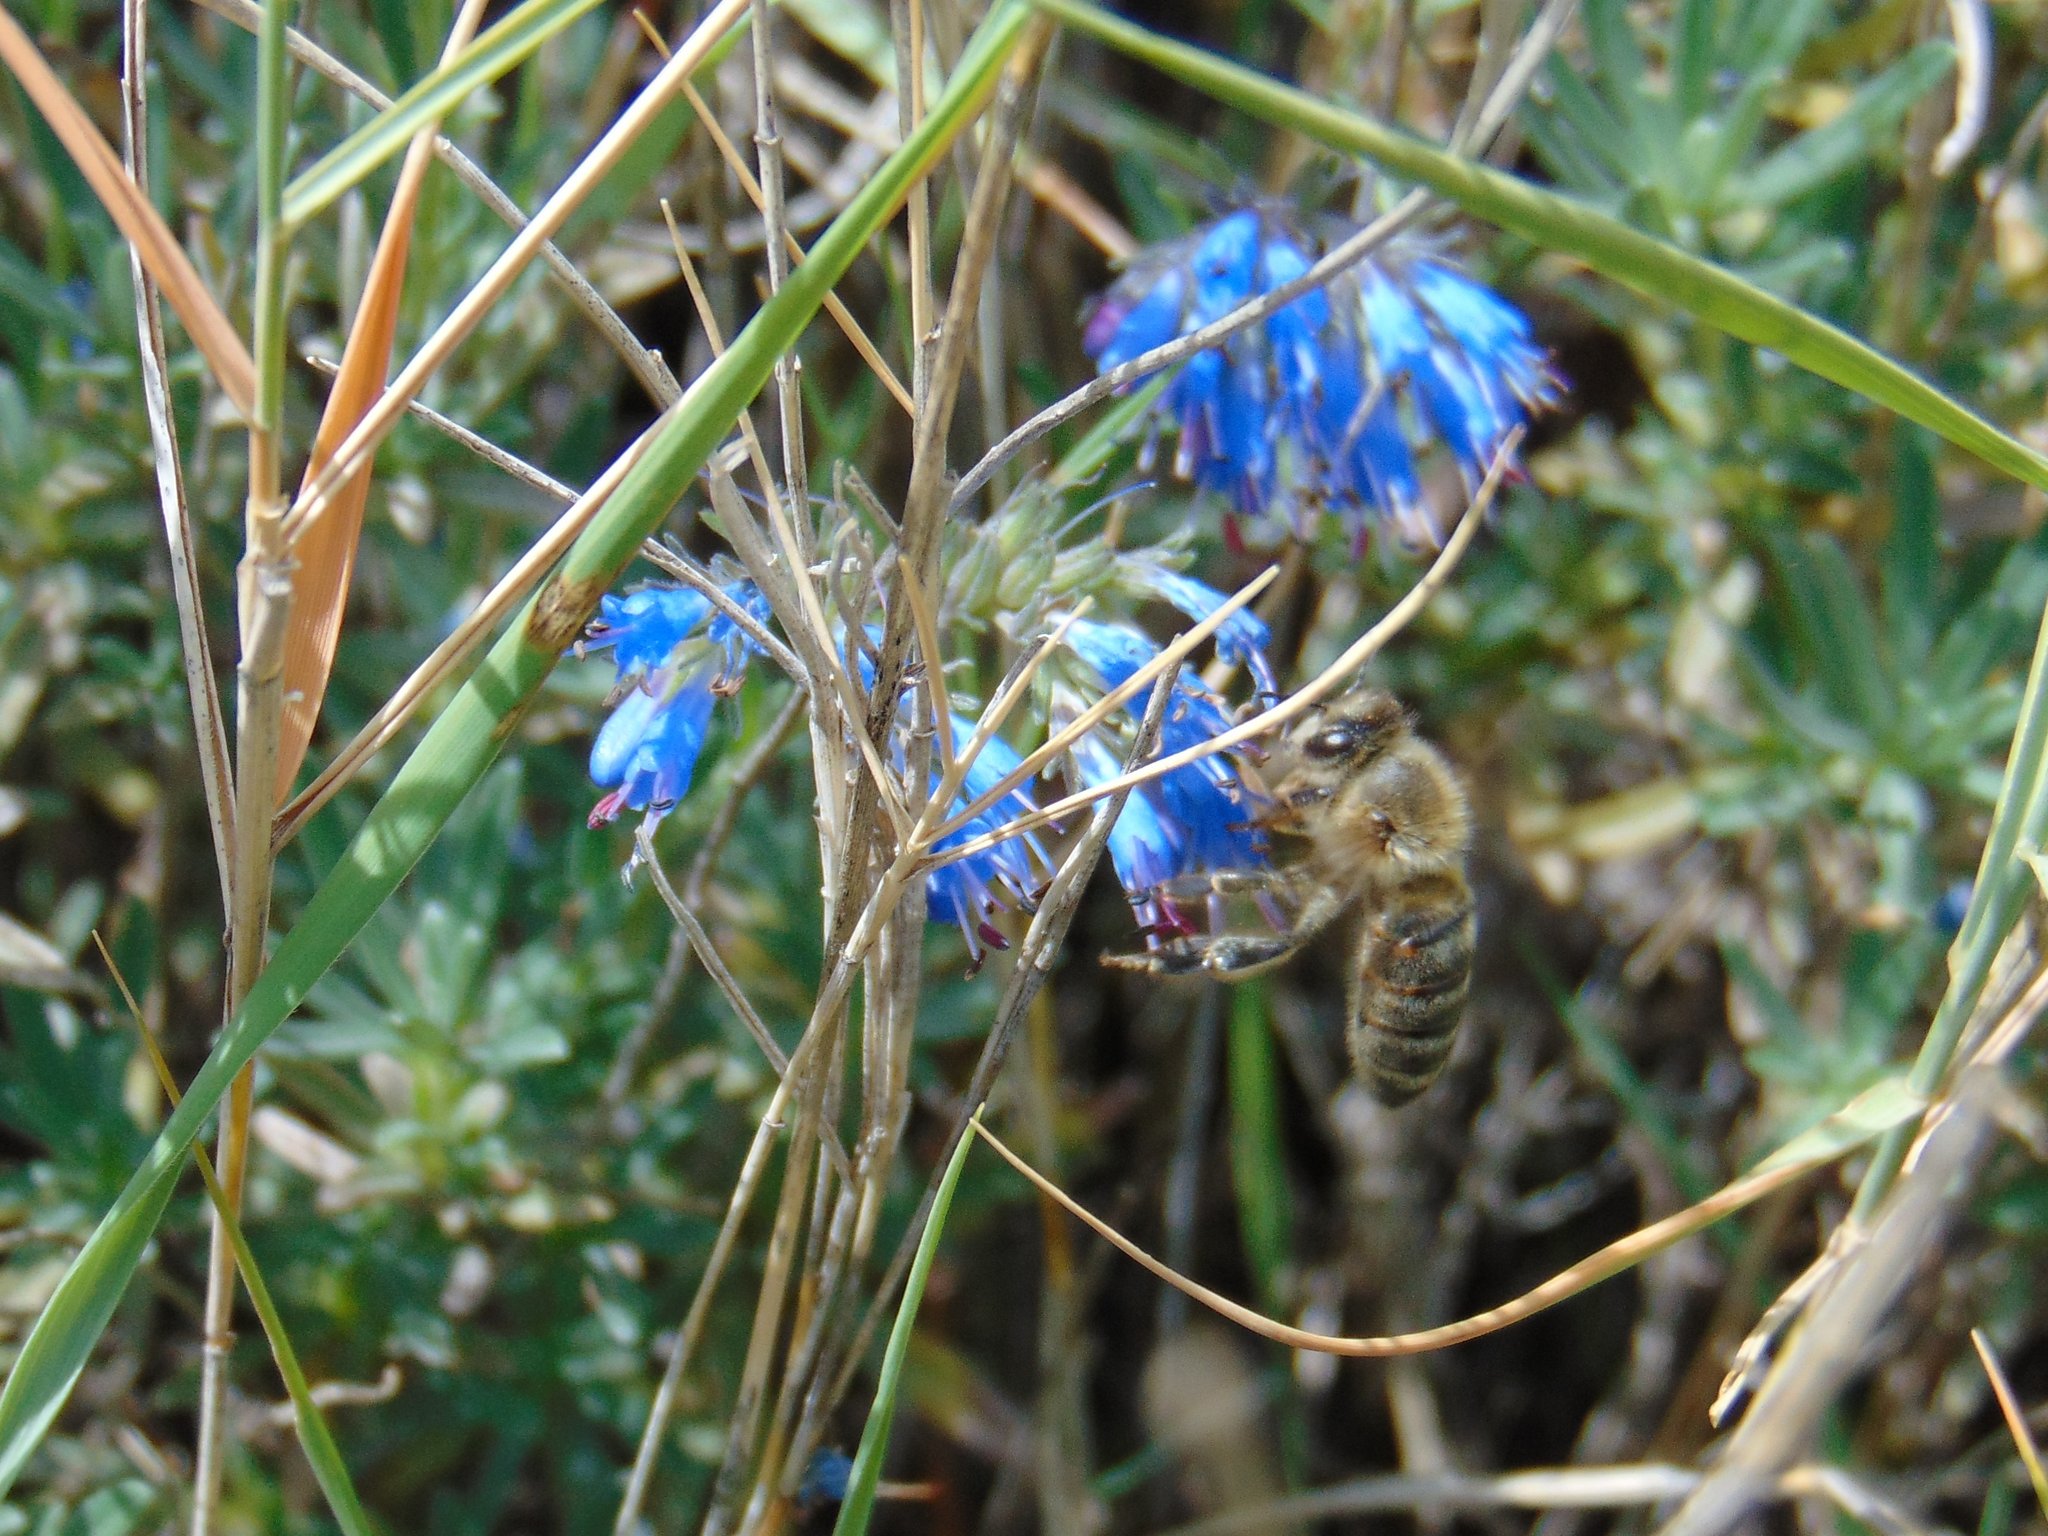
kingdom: Plantae
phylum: Tracheophyta
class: Magnoliopsida
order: Boraginales
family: Boraginaceae
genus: Moltkia
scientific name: Moltkia petraea
